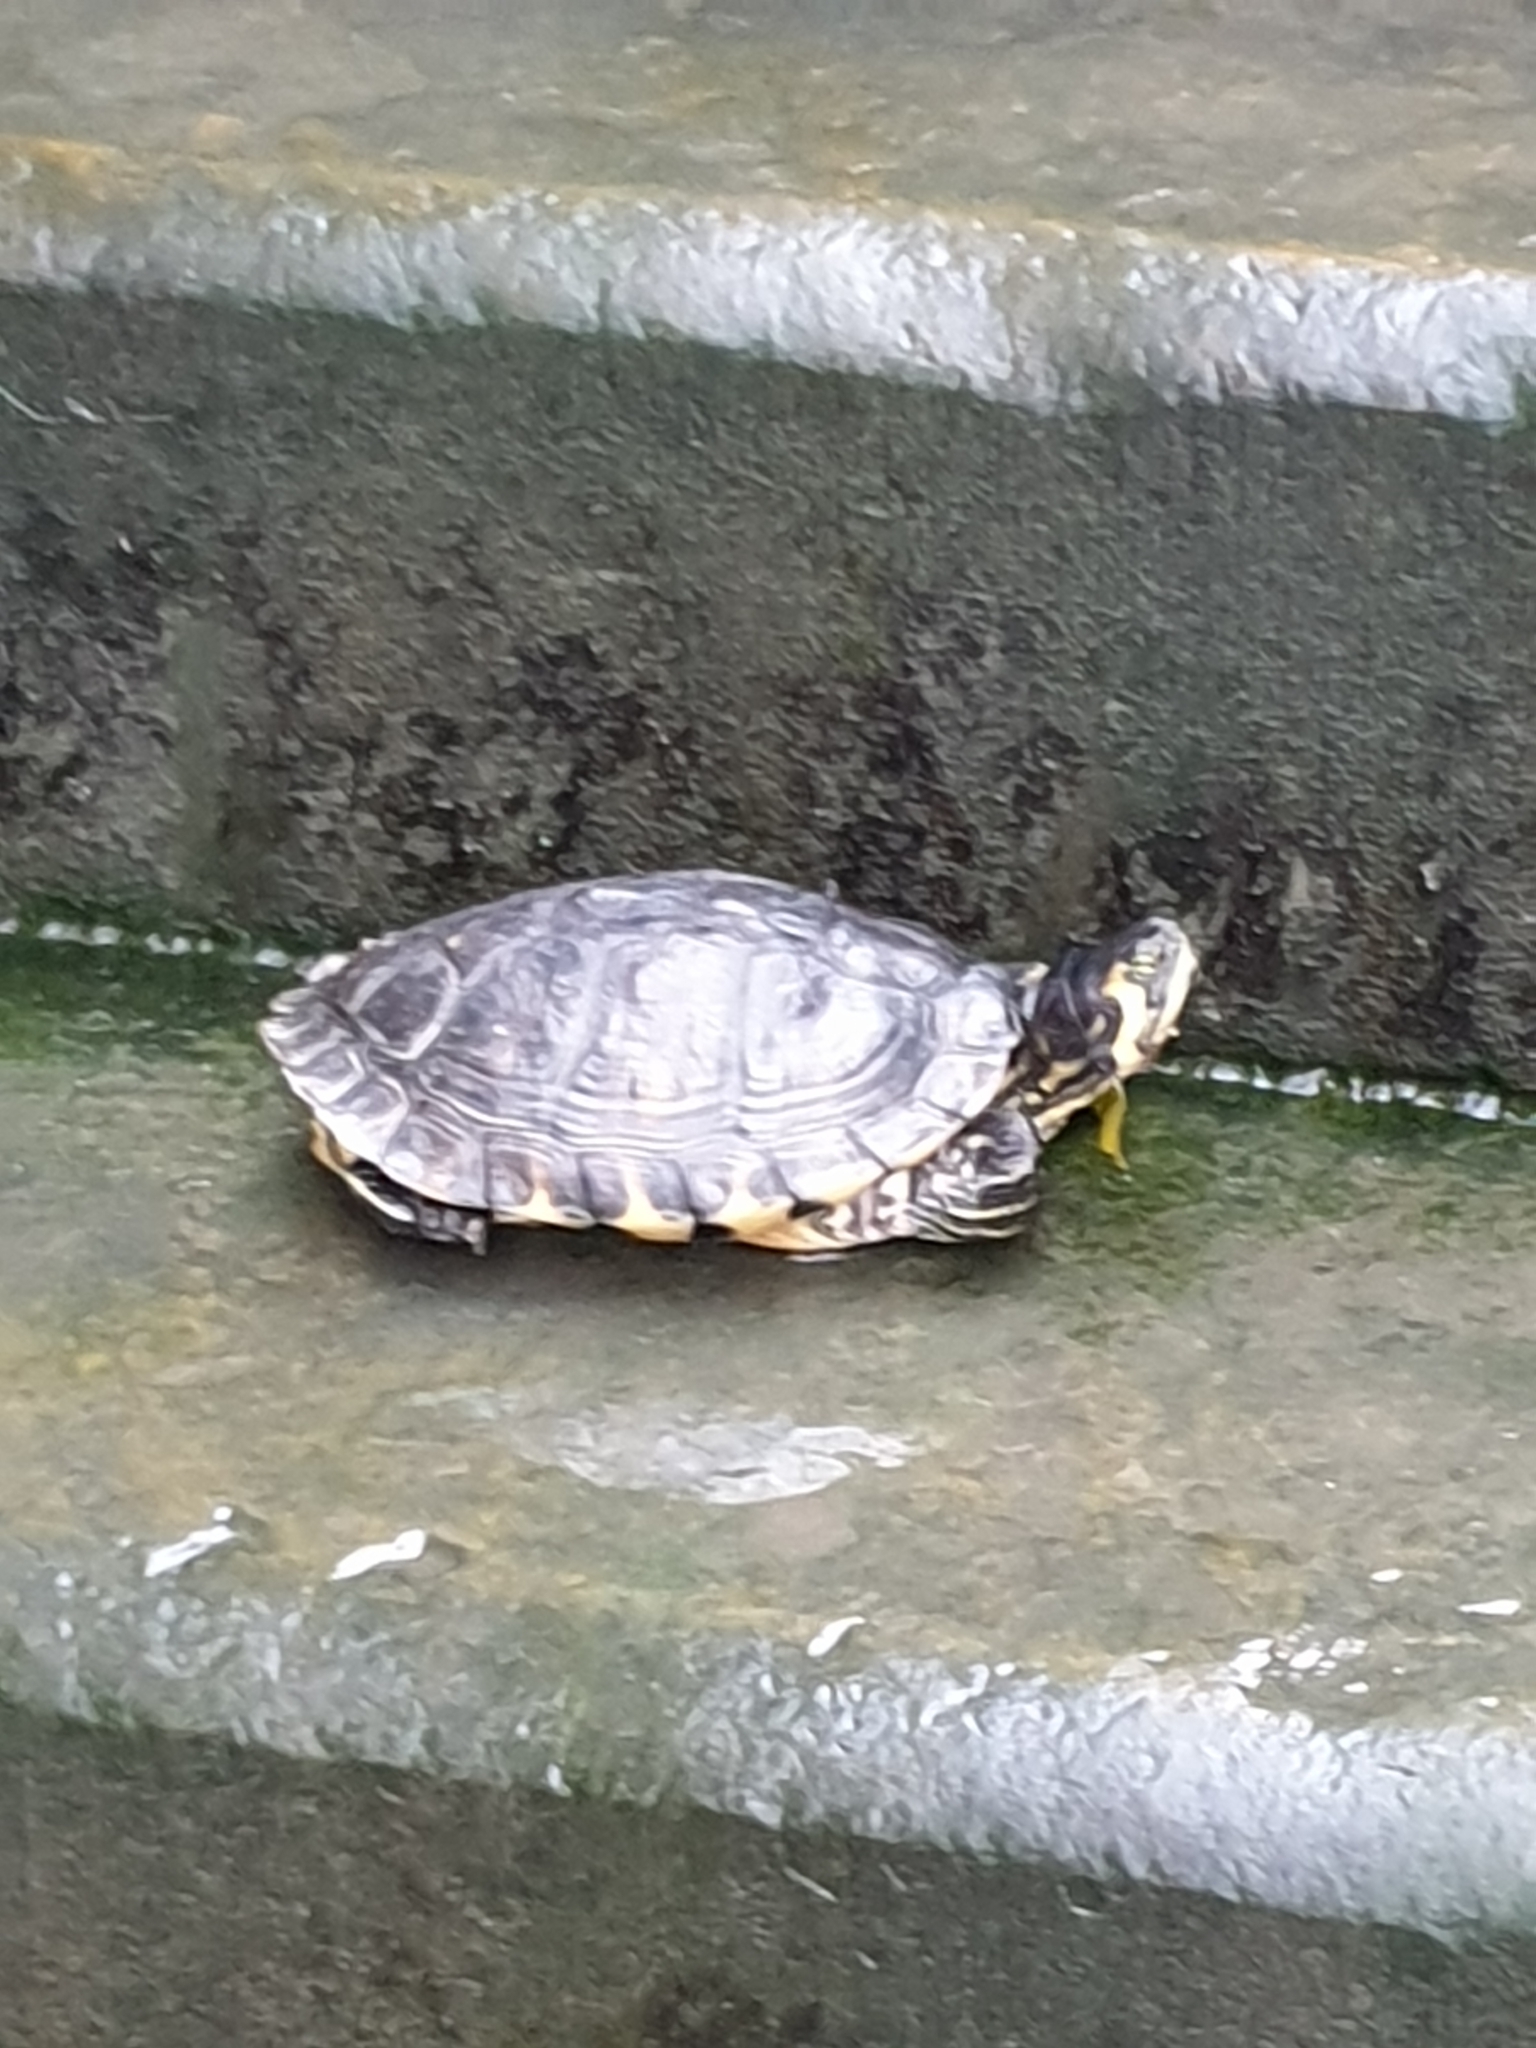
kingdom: Animalia
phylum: Chordata
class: Testudines
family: Emydidae
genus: Trachemys
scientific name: Trachemys scripta
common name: Slider
